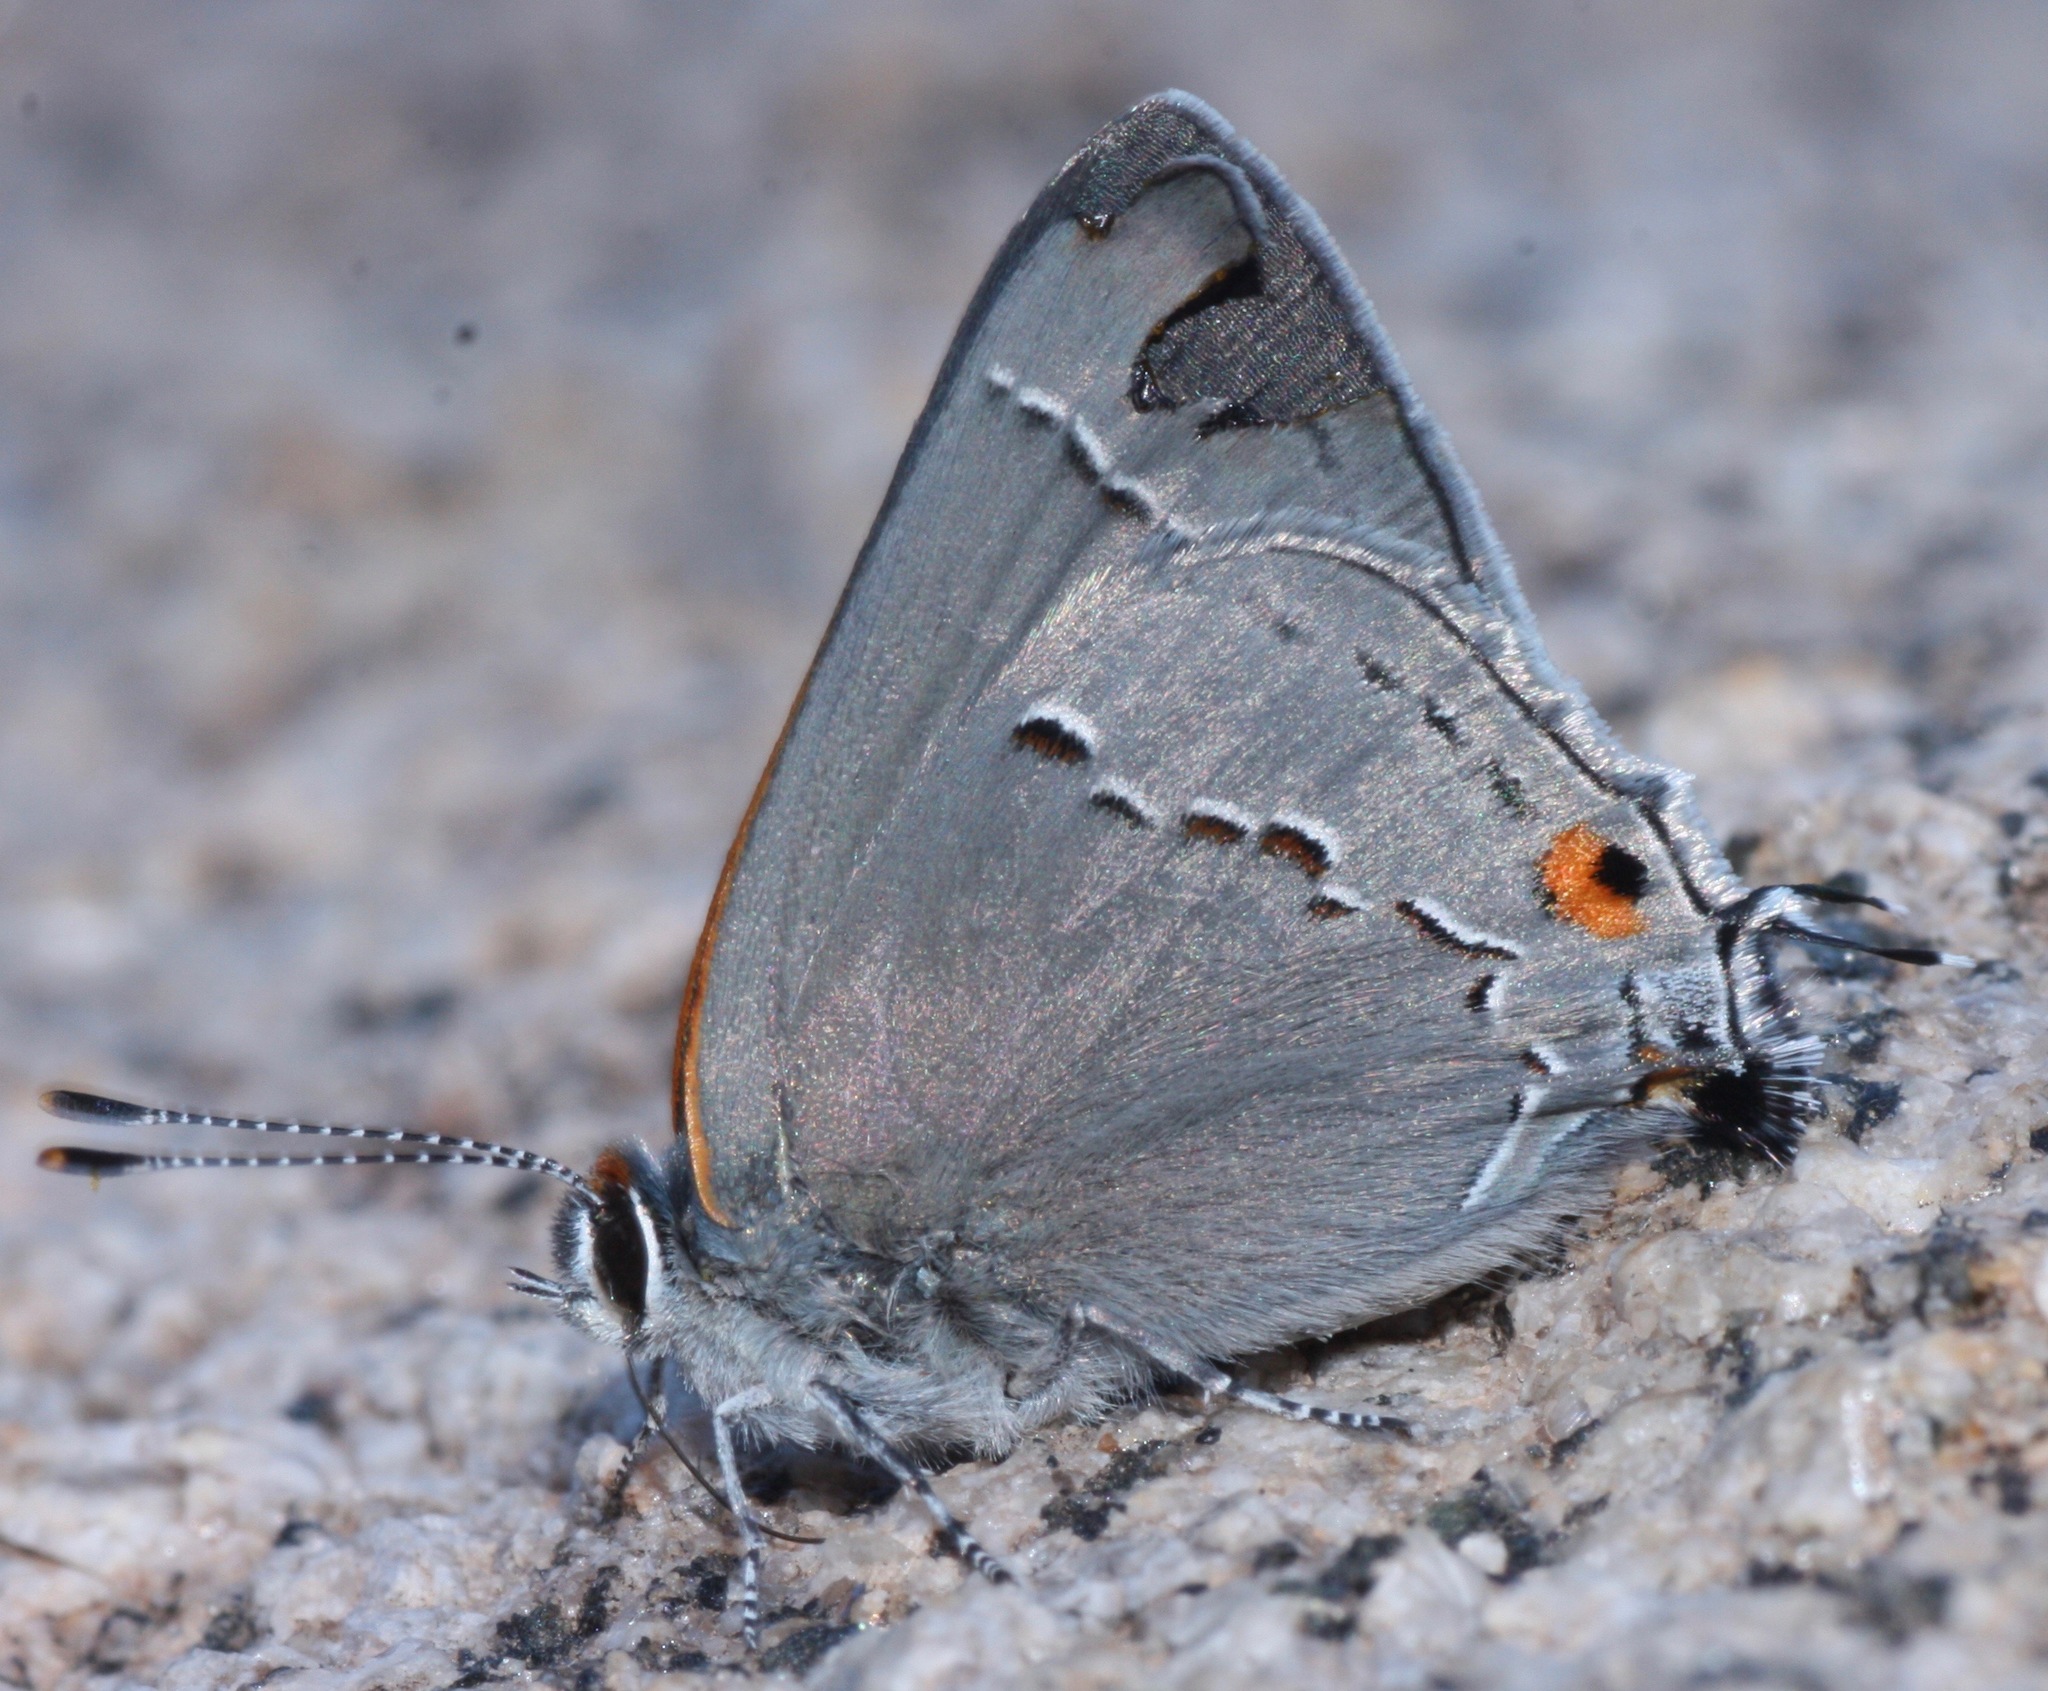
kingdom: Animalia
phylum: Arthropoda
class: Insecta
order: Lepidoptera
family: Lycaenidae
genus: Strymon
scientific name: Strymon melinus
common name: Gray hairstreak
